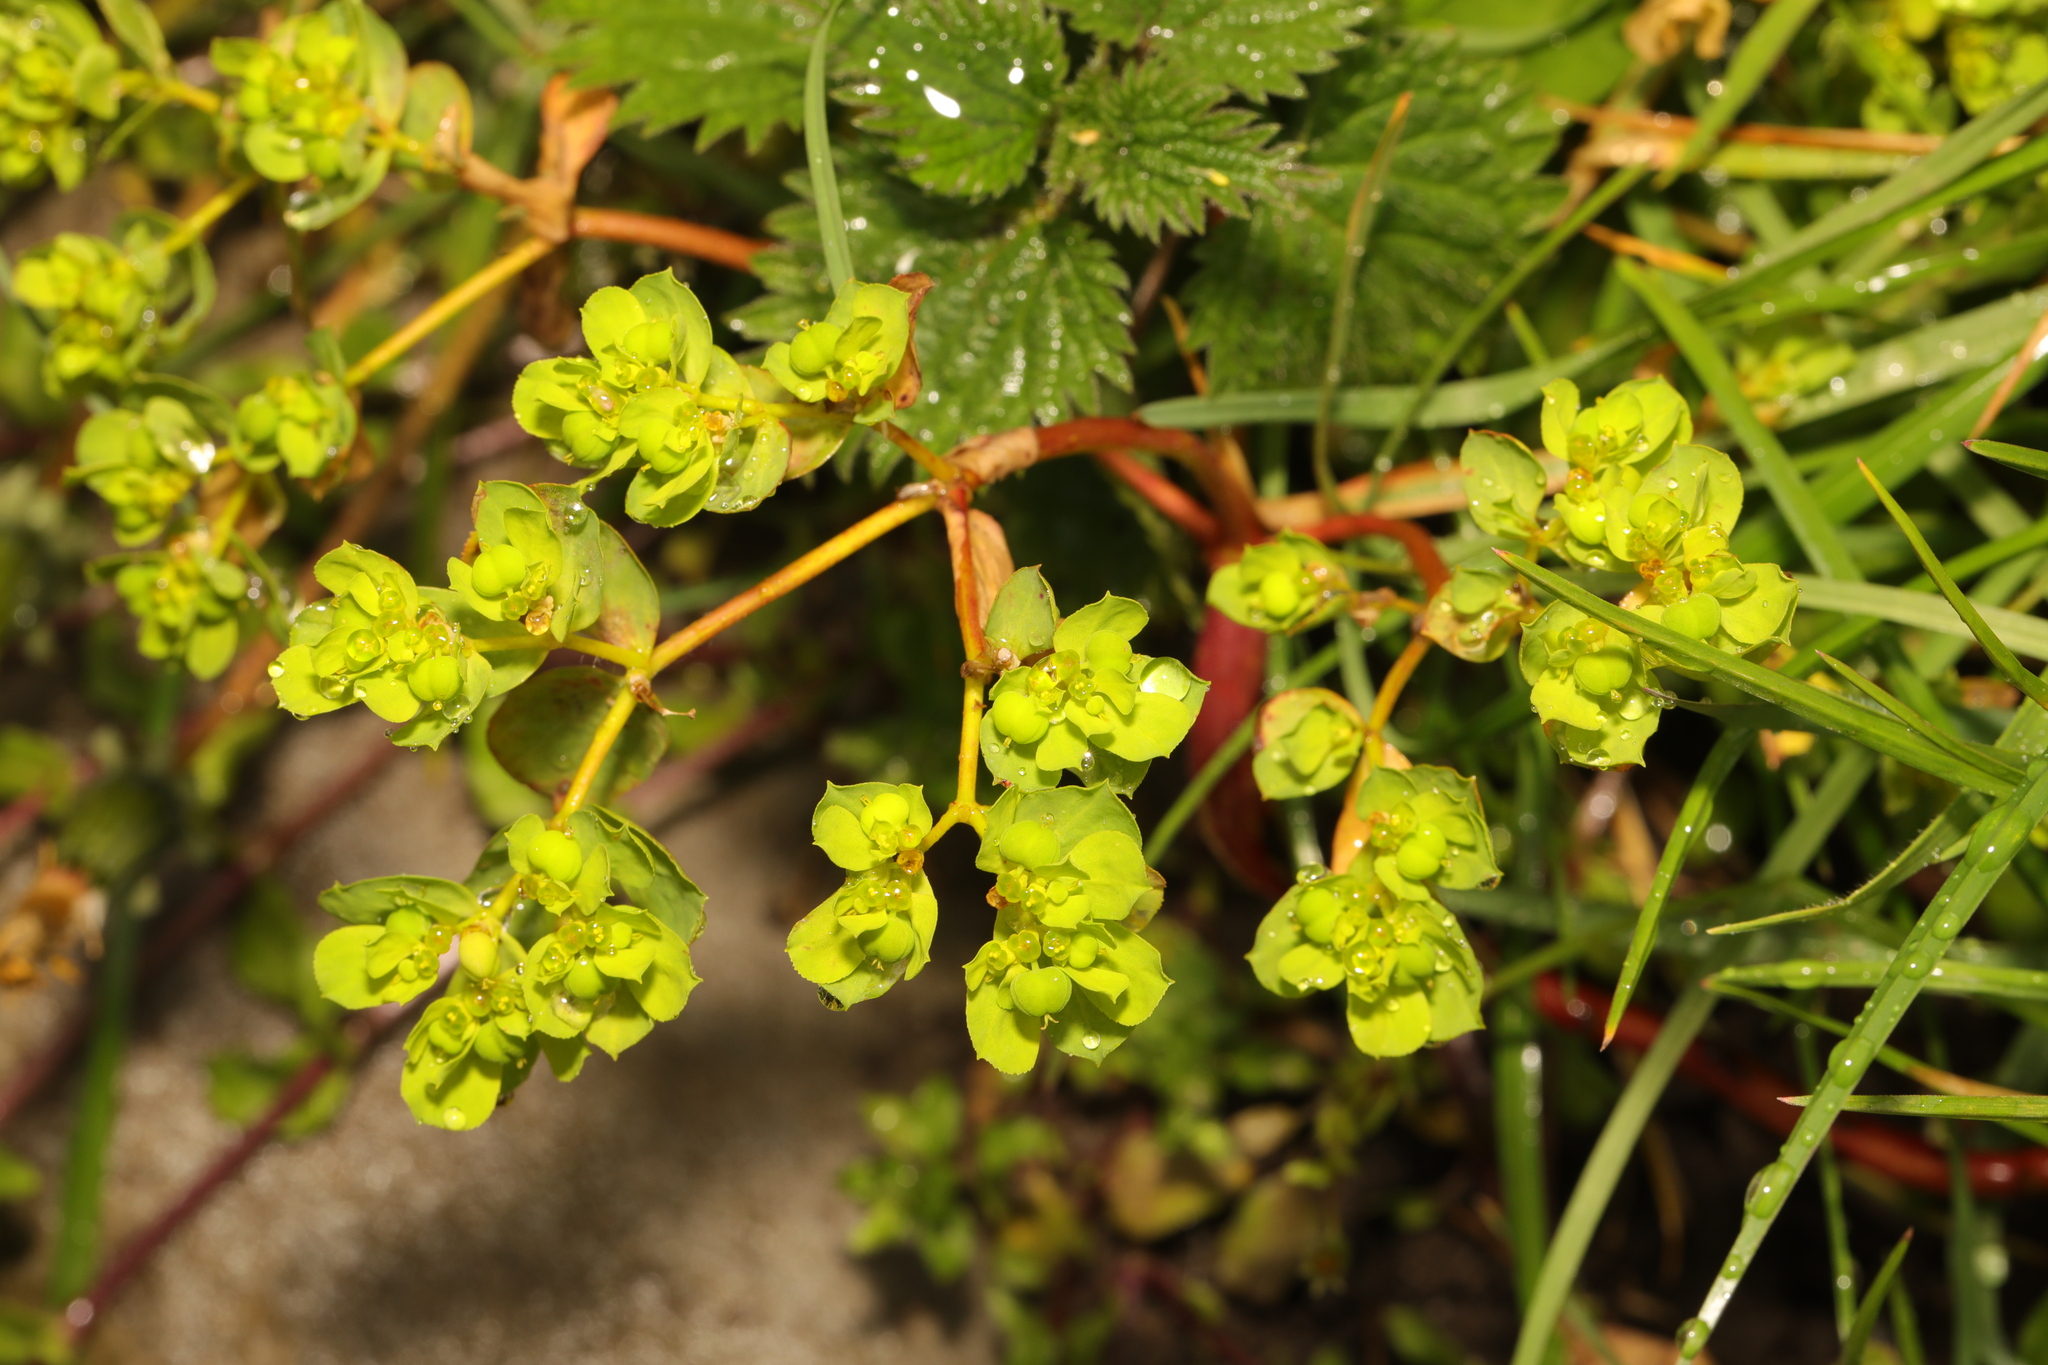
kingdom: Plantae
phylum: Tracheophyta
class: Magnoliopsida
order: Malpighiales
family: Euphorbiaceae
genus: Euphorbia
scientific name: Euphorbia helioscopia
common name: Sun spurge
